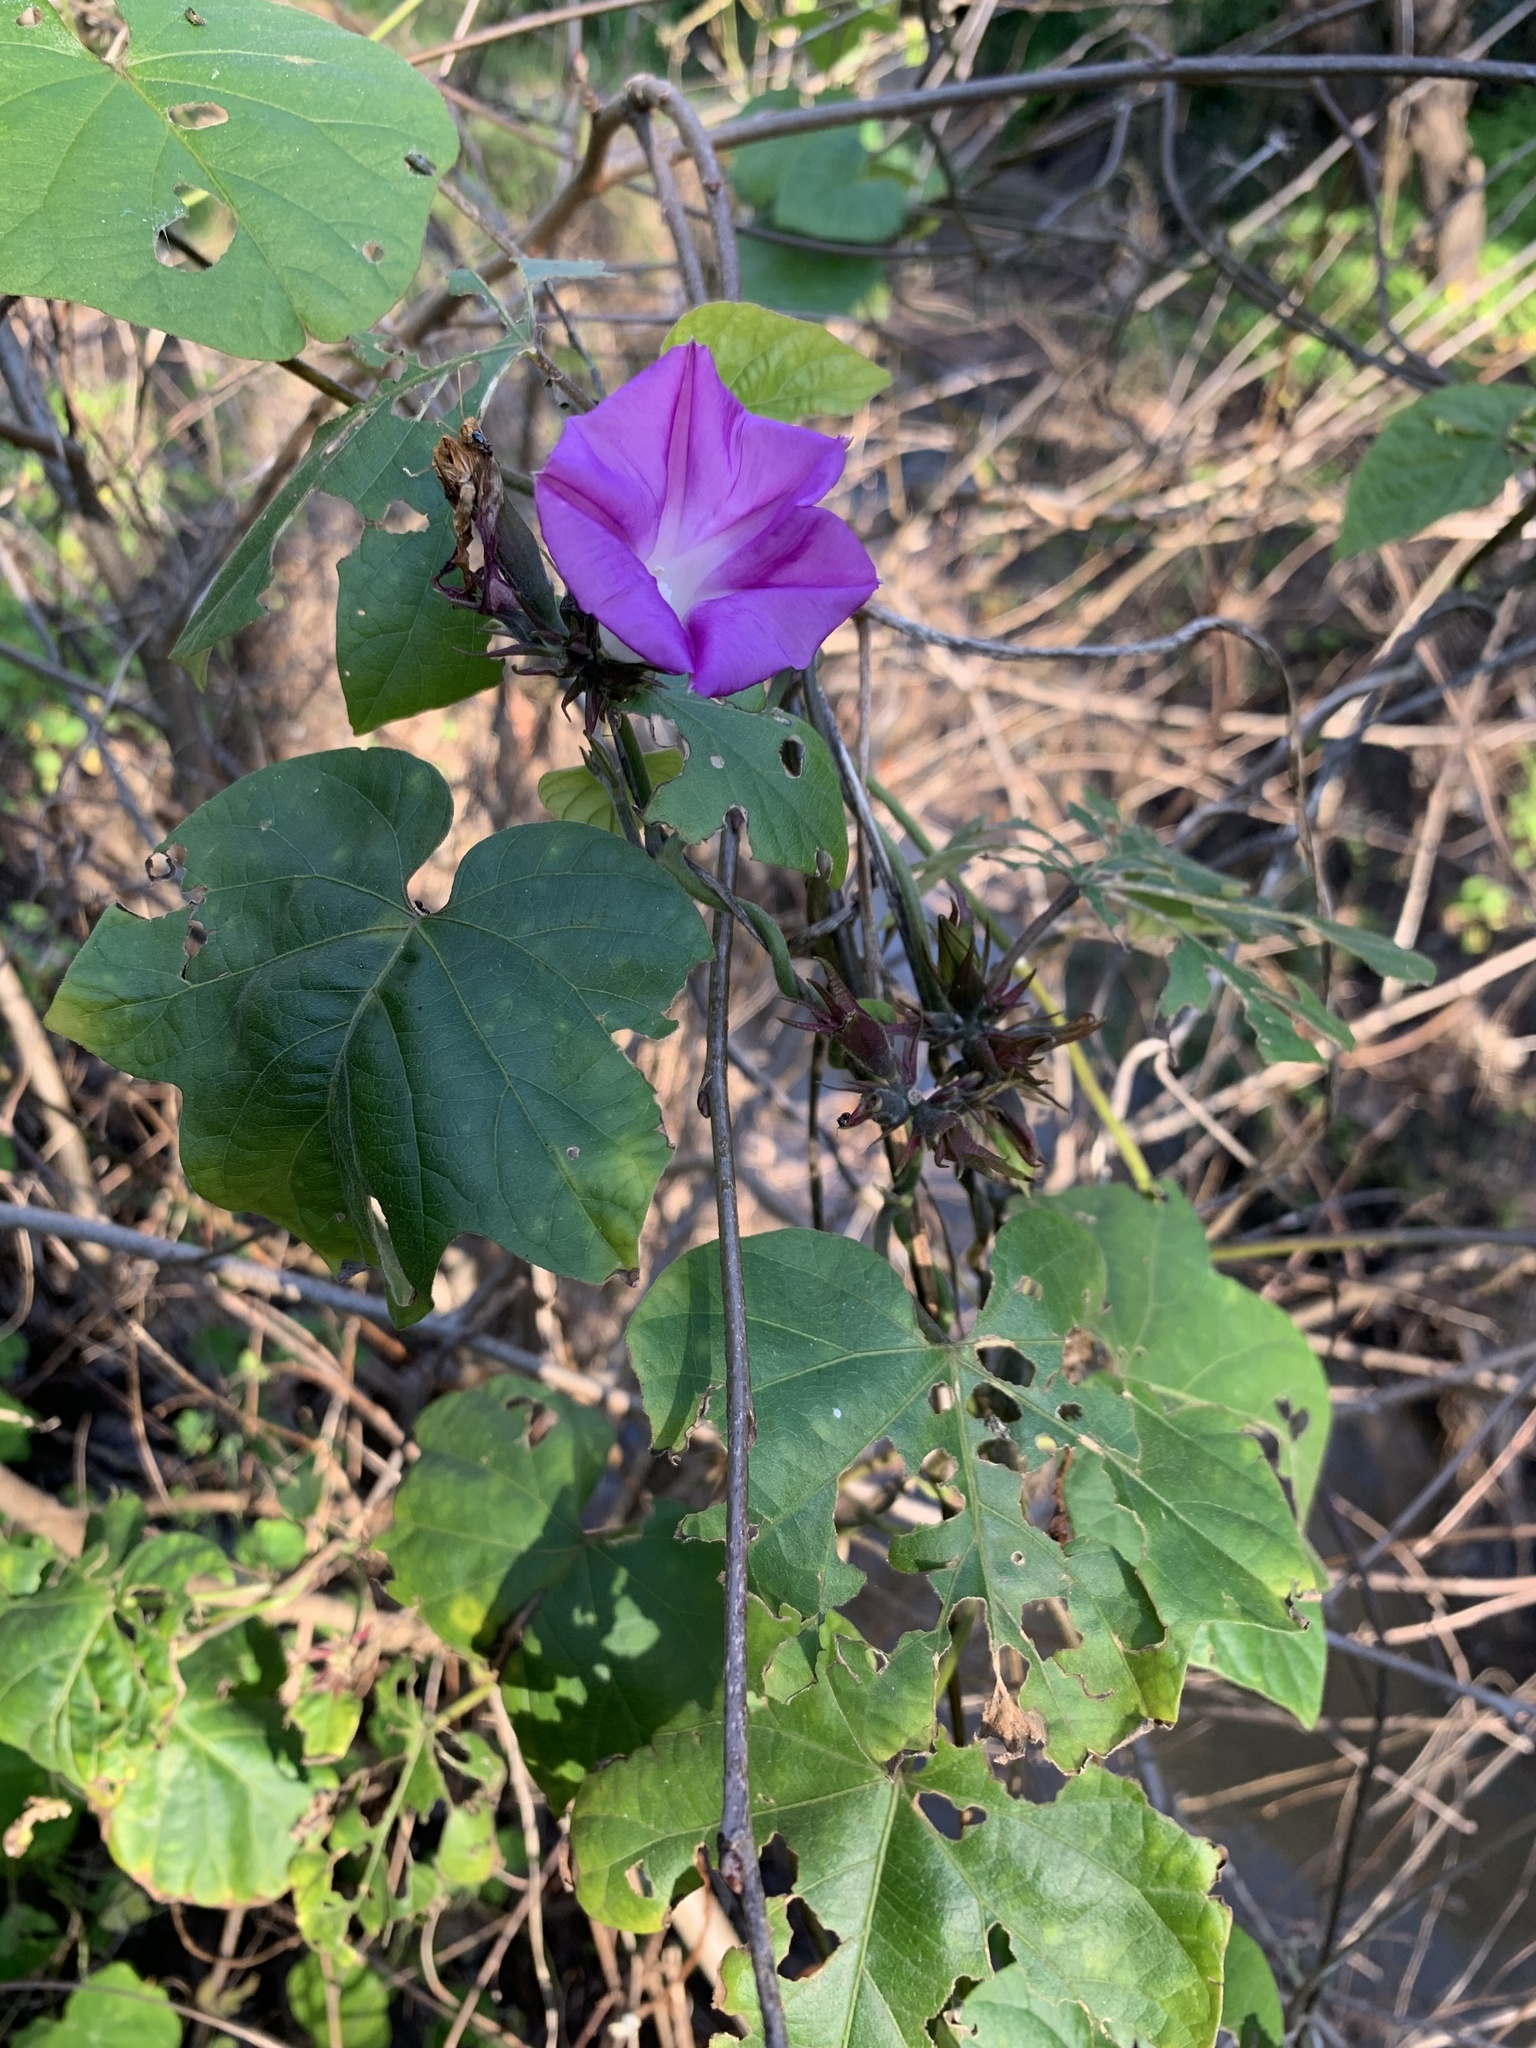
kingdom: Plantae
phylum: Tracheophyta
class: Magnoliopsida
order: Solanales
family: Convolvulaceae
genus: Ipomoea
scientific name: Ipomoea indica
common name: Blue dawnflower
